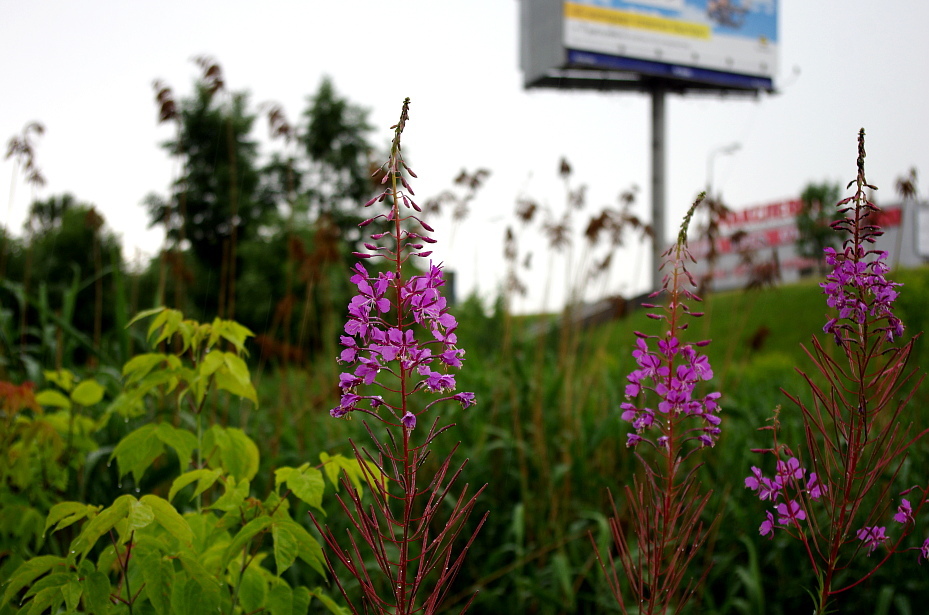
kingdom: Plantae
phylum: Tracheophyta
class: Magnoliopsida
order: Myrtales
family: Onagraceae
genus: Chamaenerion
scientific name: Chamaenerion angustifolium
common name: Fireweed
